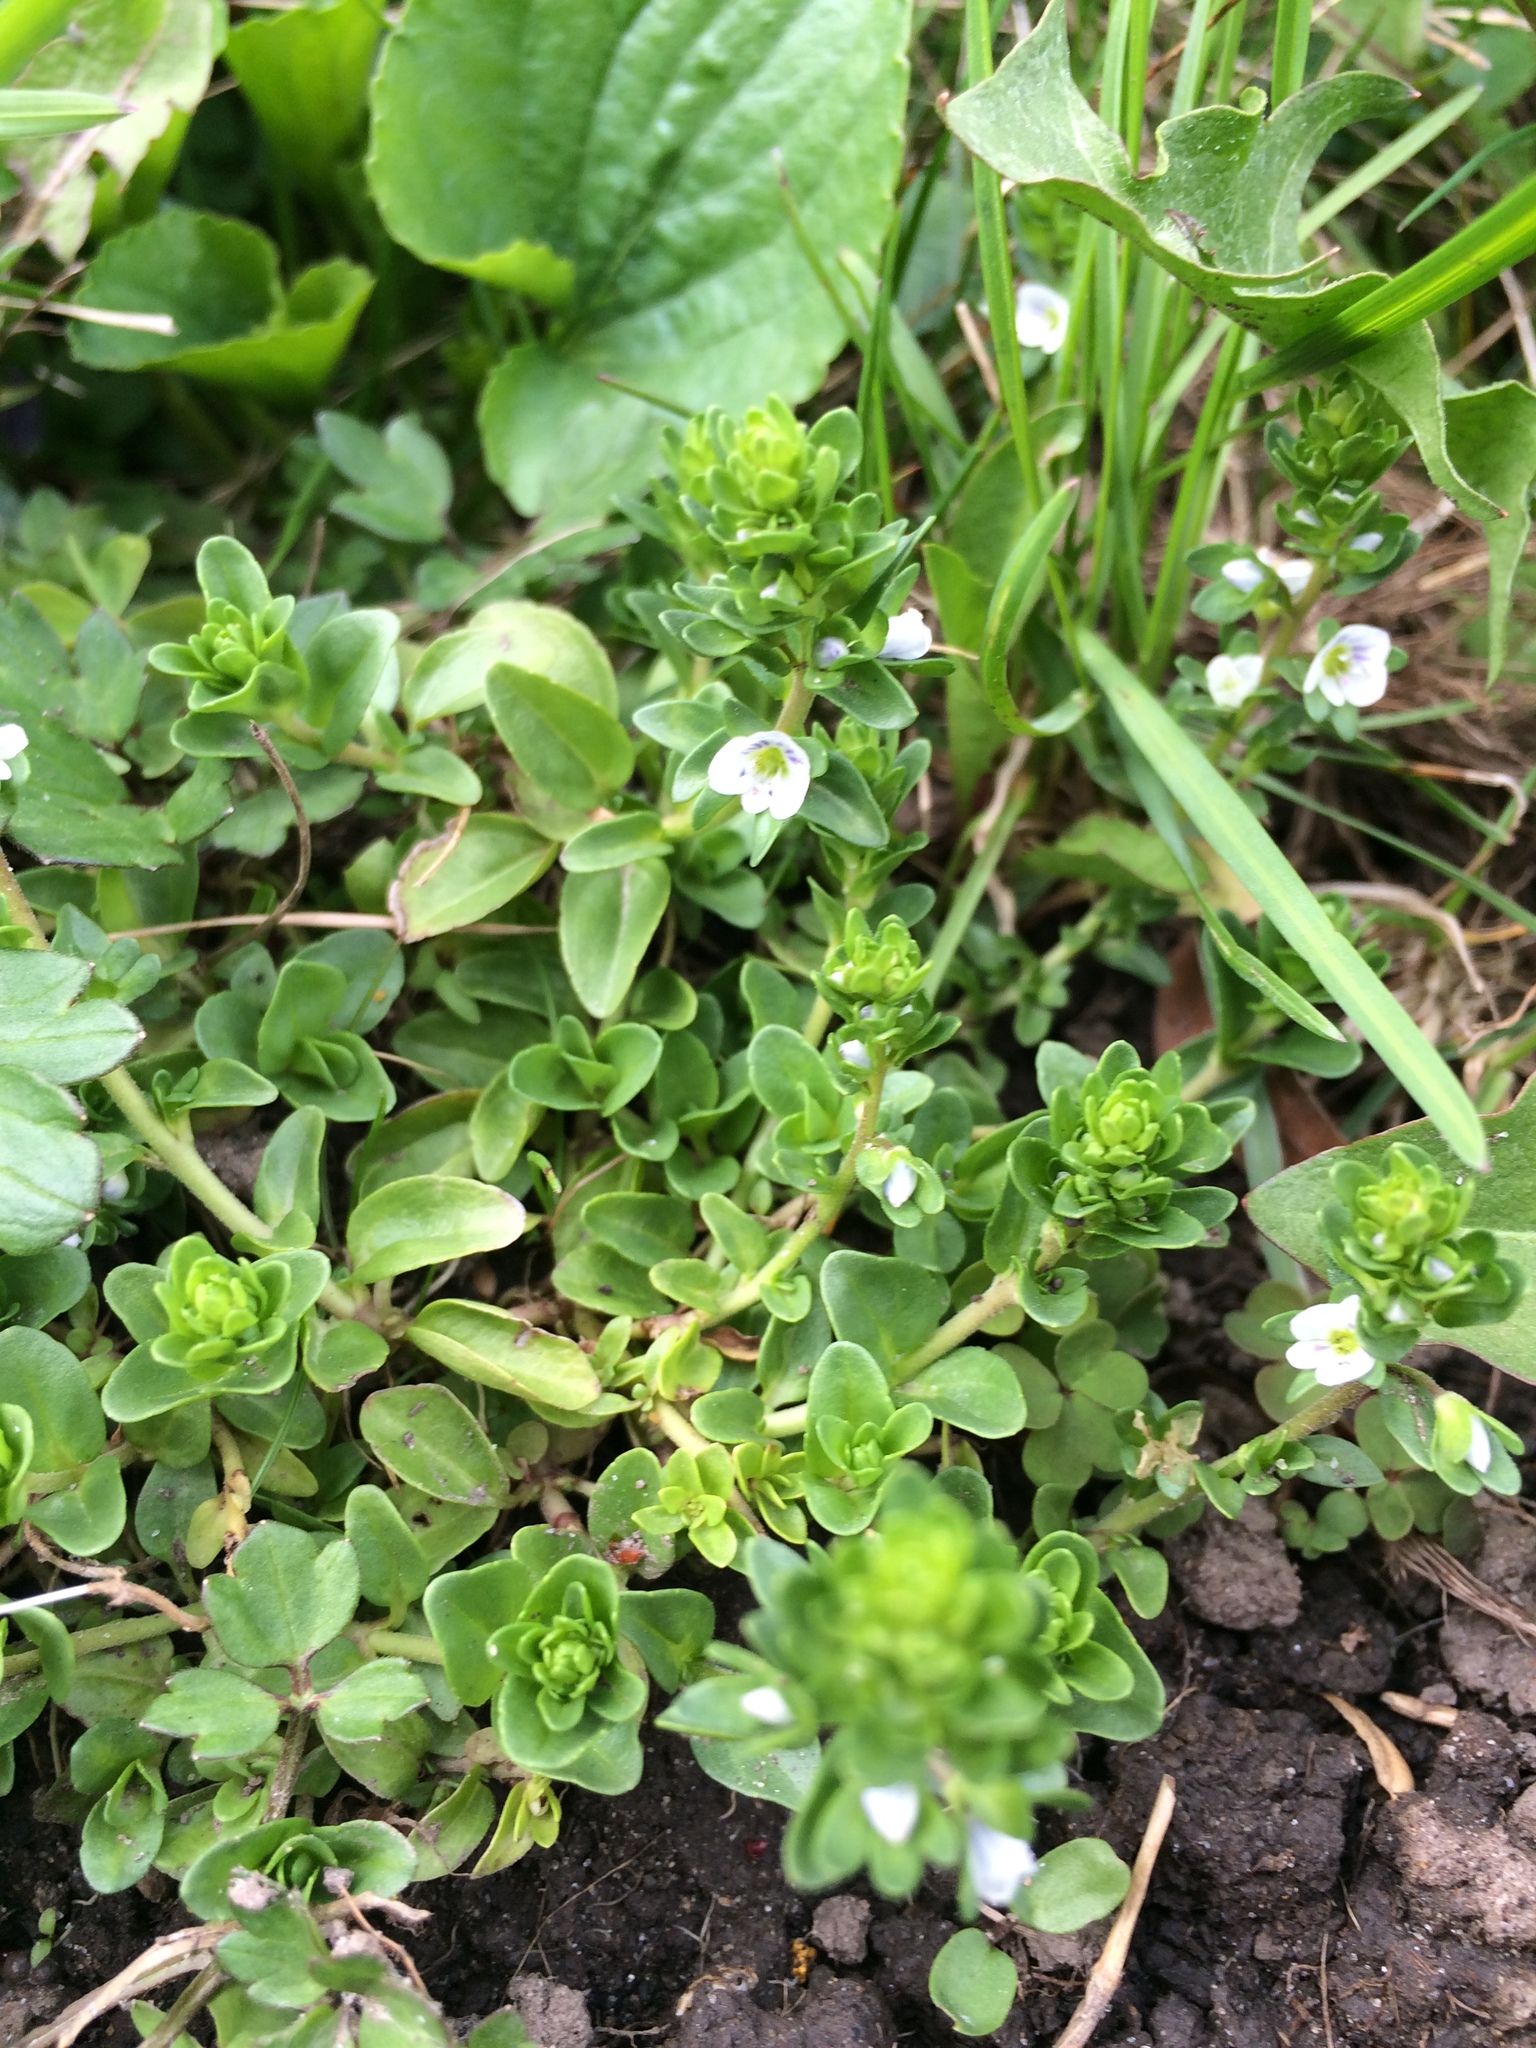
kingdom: Plantae
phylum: Tracheophyta
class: Magnoliopsida
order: Lamiales
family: Plantaginaceae
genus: Veronica
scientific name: Veronica serpyllifolia
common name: Thyme-leaved speedwell
